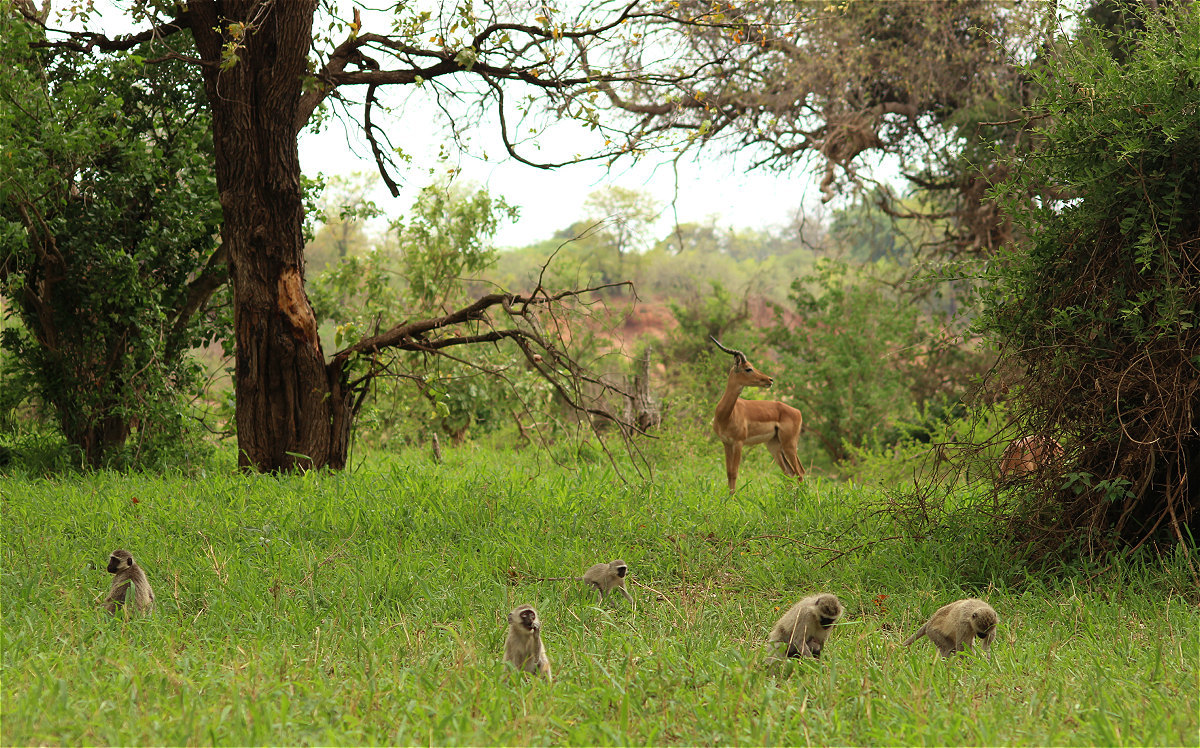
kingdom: Animalia
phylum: Chordata
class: Mammalia
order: Primates
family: Cercopithecidae
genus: Chlorocebus
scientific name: Chlorocebus pygerythrus
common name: Vervet monkey
